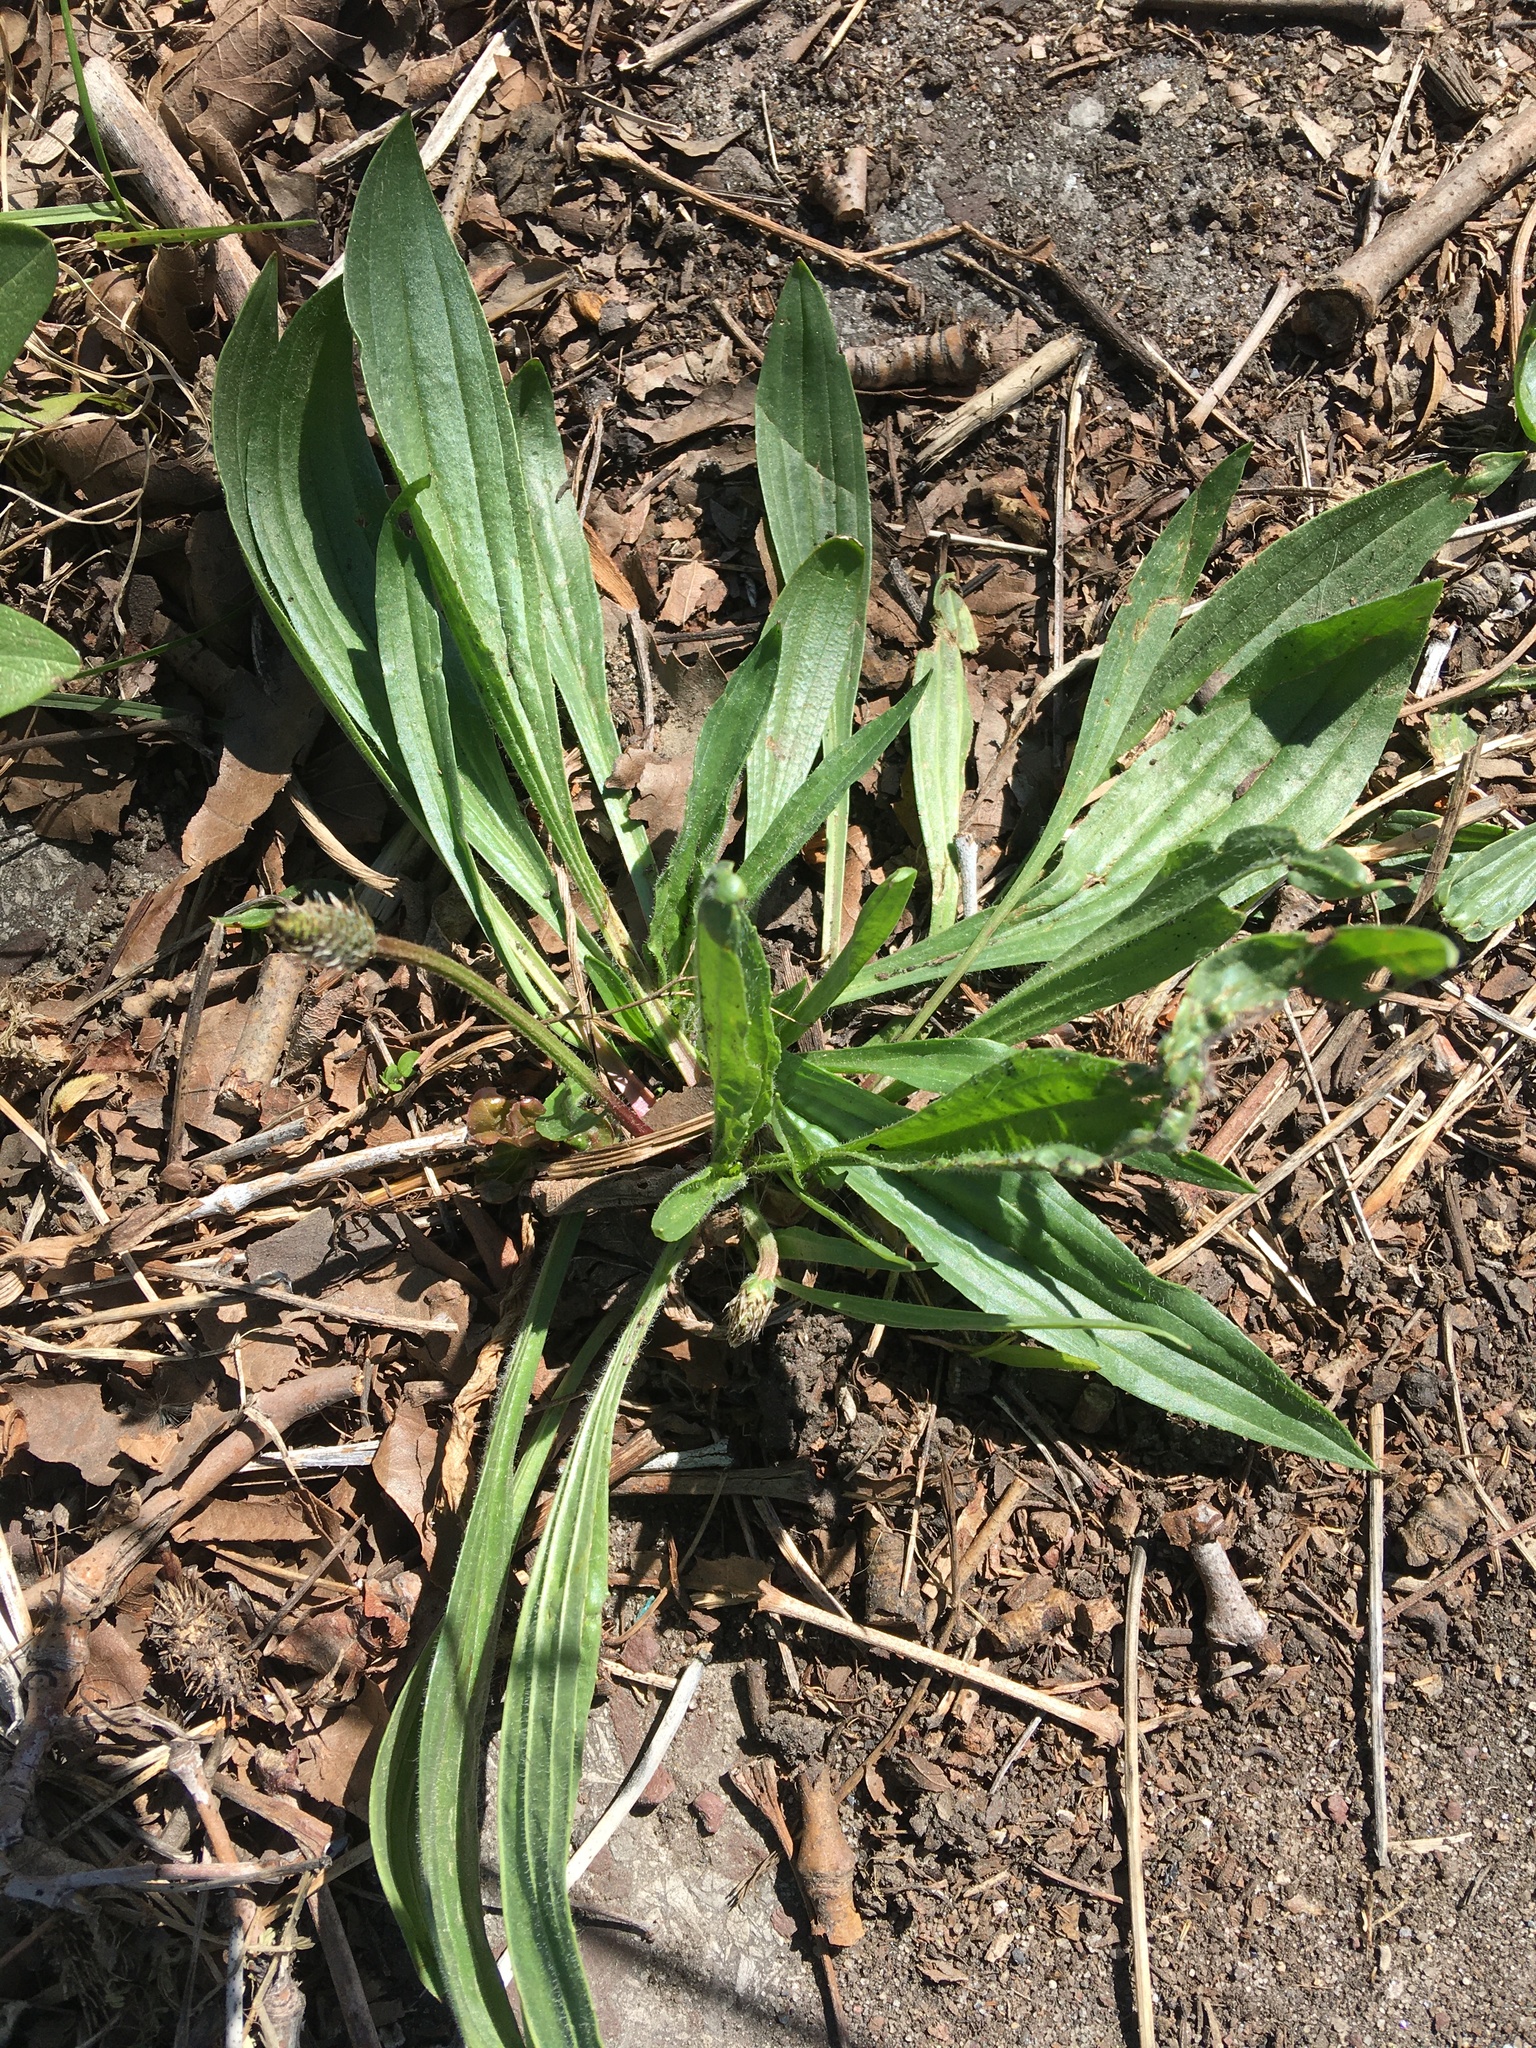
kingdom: Plantae
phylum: Tracheophyta
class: Magnoliopsida
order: Lamiales
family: Plantaginaceae
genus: Plantago
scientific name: Plantago lanceolata
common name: Ribwort plantain
